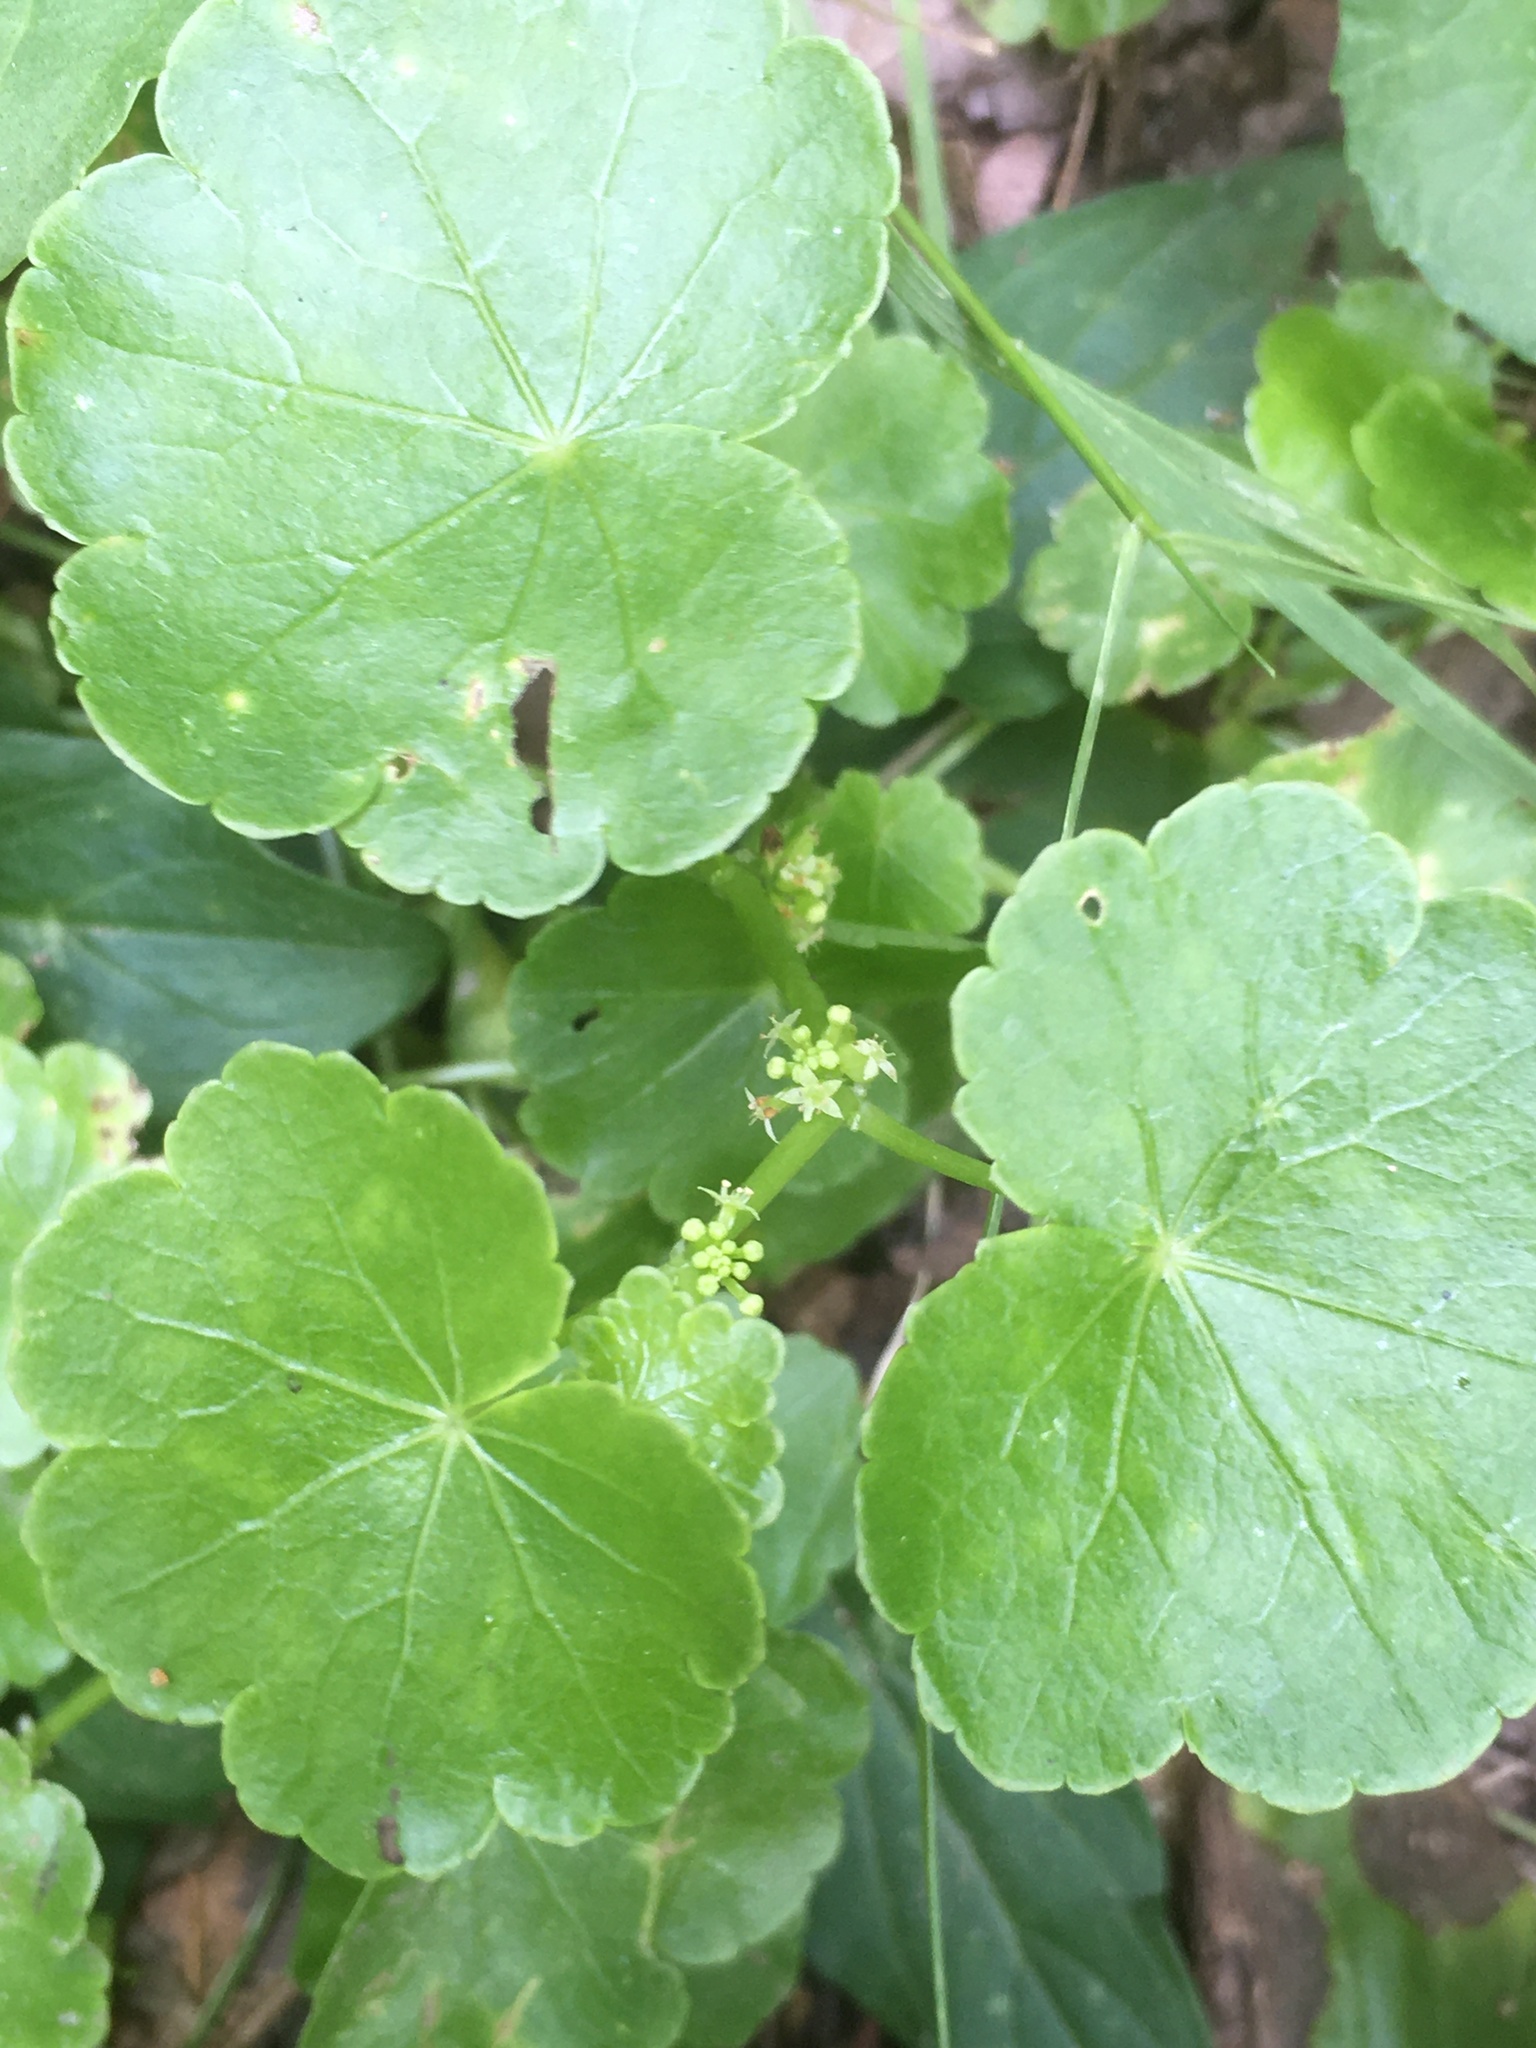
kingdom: Plantae
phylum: Tracheophyta
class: Magnoliopsida
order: Apiales
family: Araliaceae
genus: Hydrocotyle
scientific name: Hydrocotyle americana
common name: American water-pennywort
